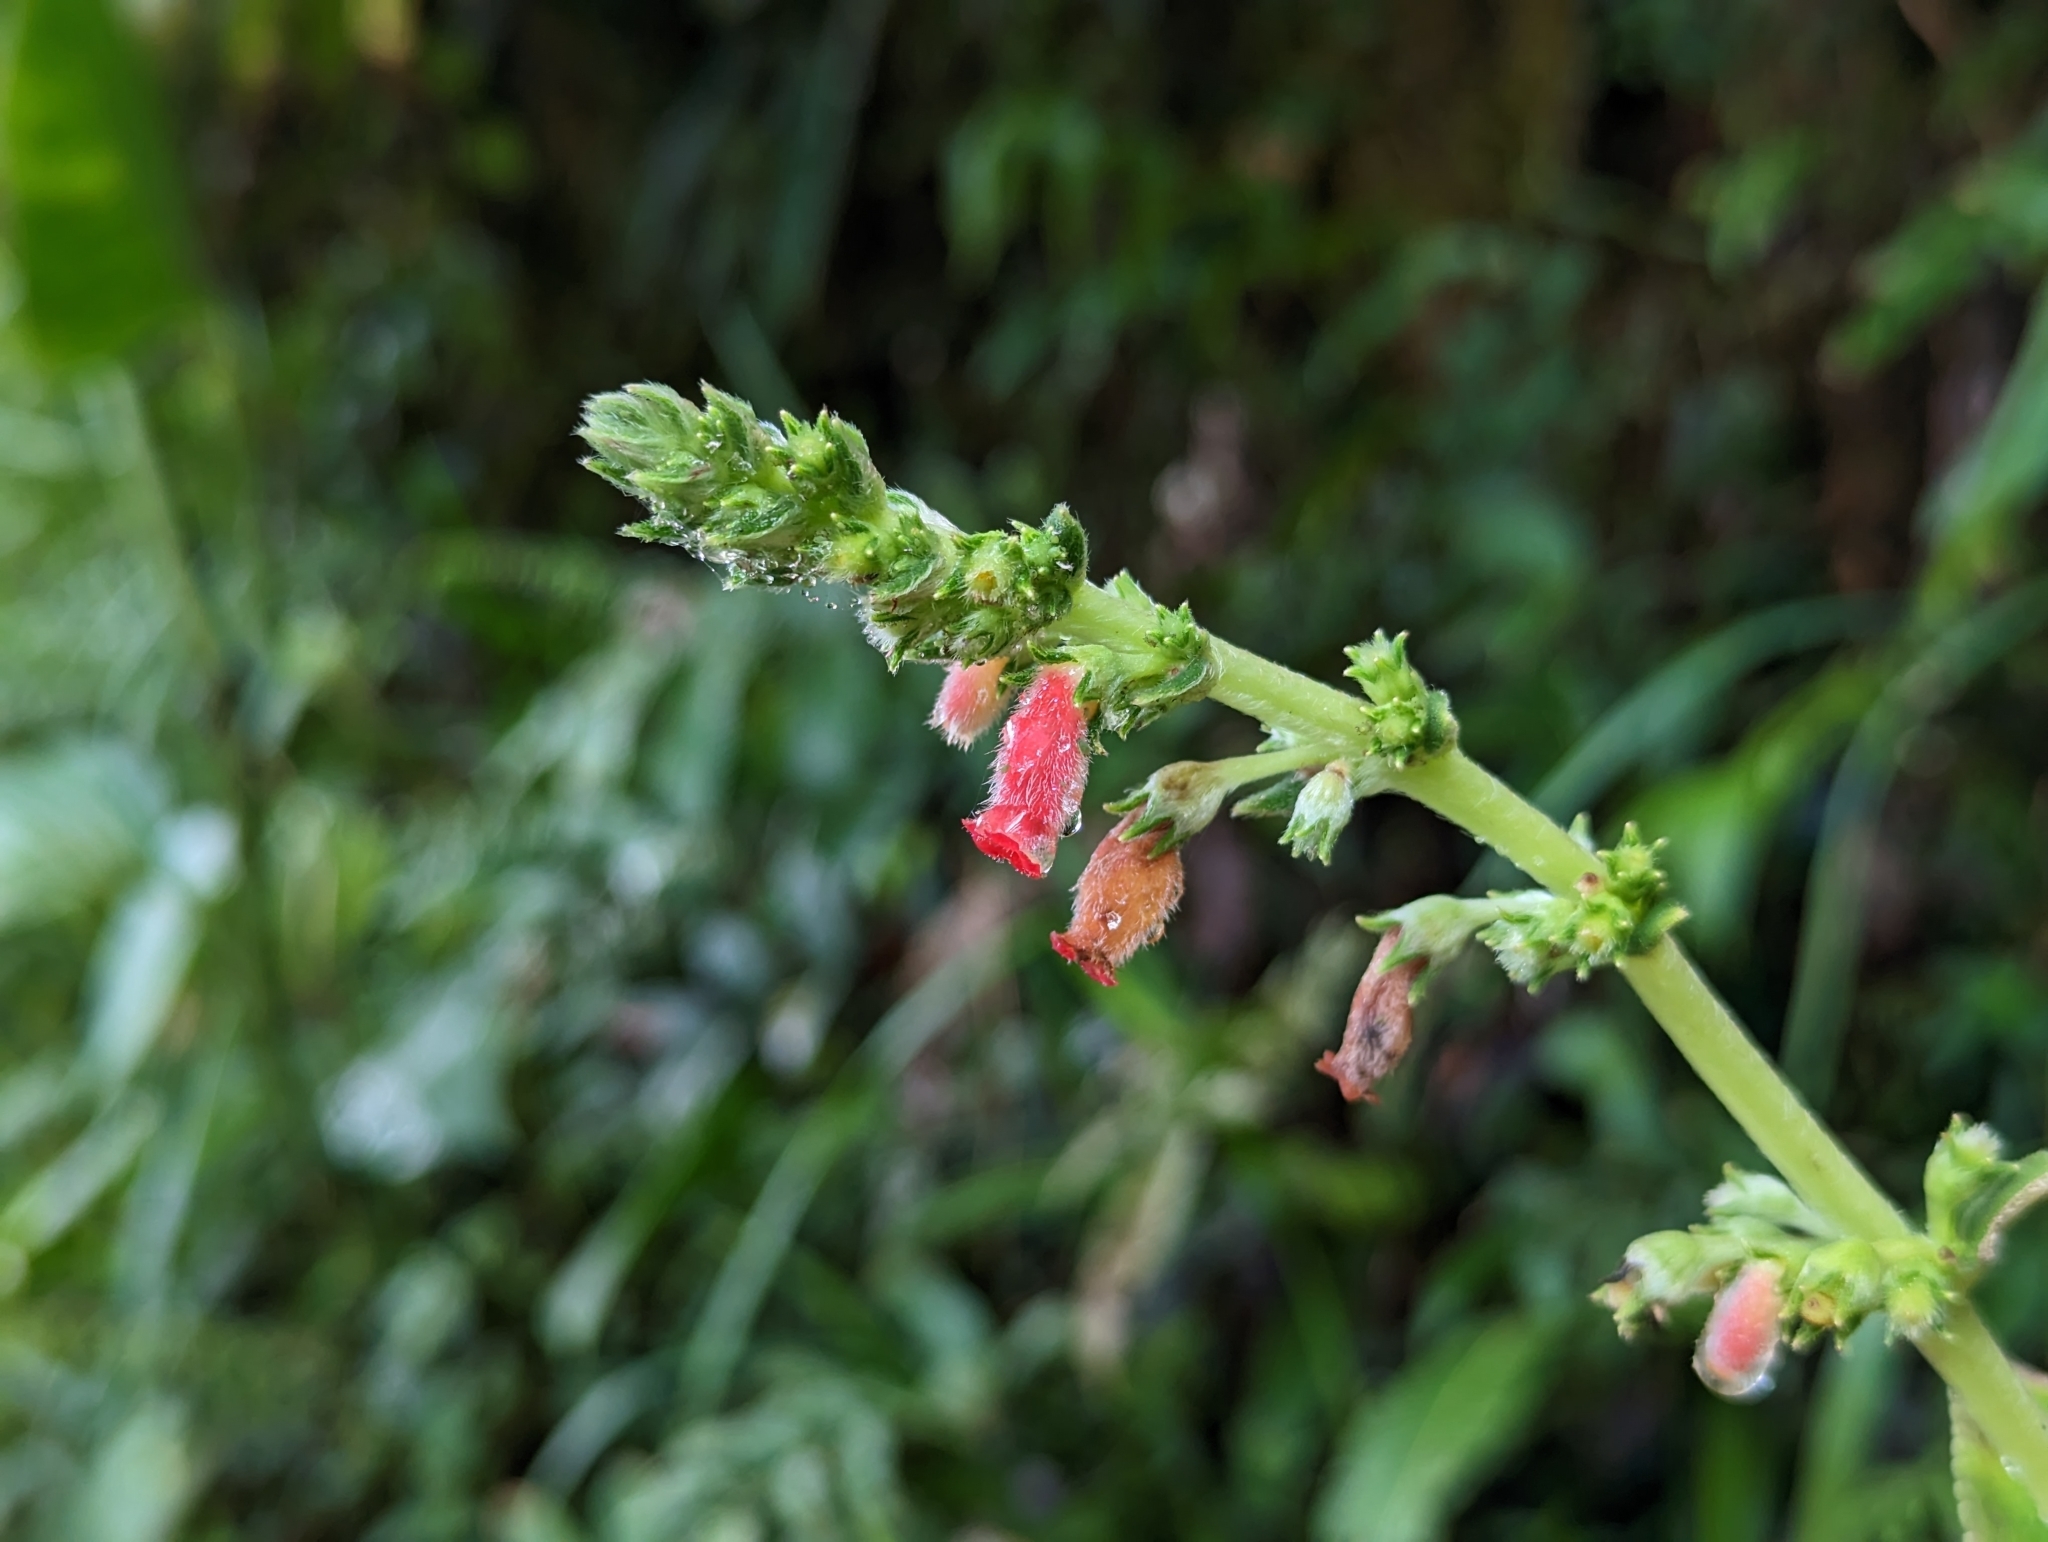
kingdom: Plantae
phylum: Tracheophyta
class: Magnoliopsida
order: Lamiales
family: Gesneriaceae
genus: Kohleria
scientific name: Kohleria spicata
